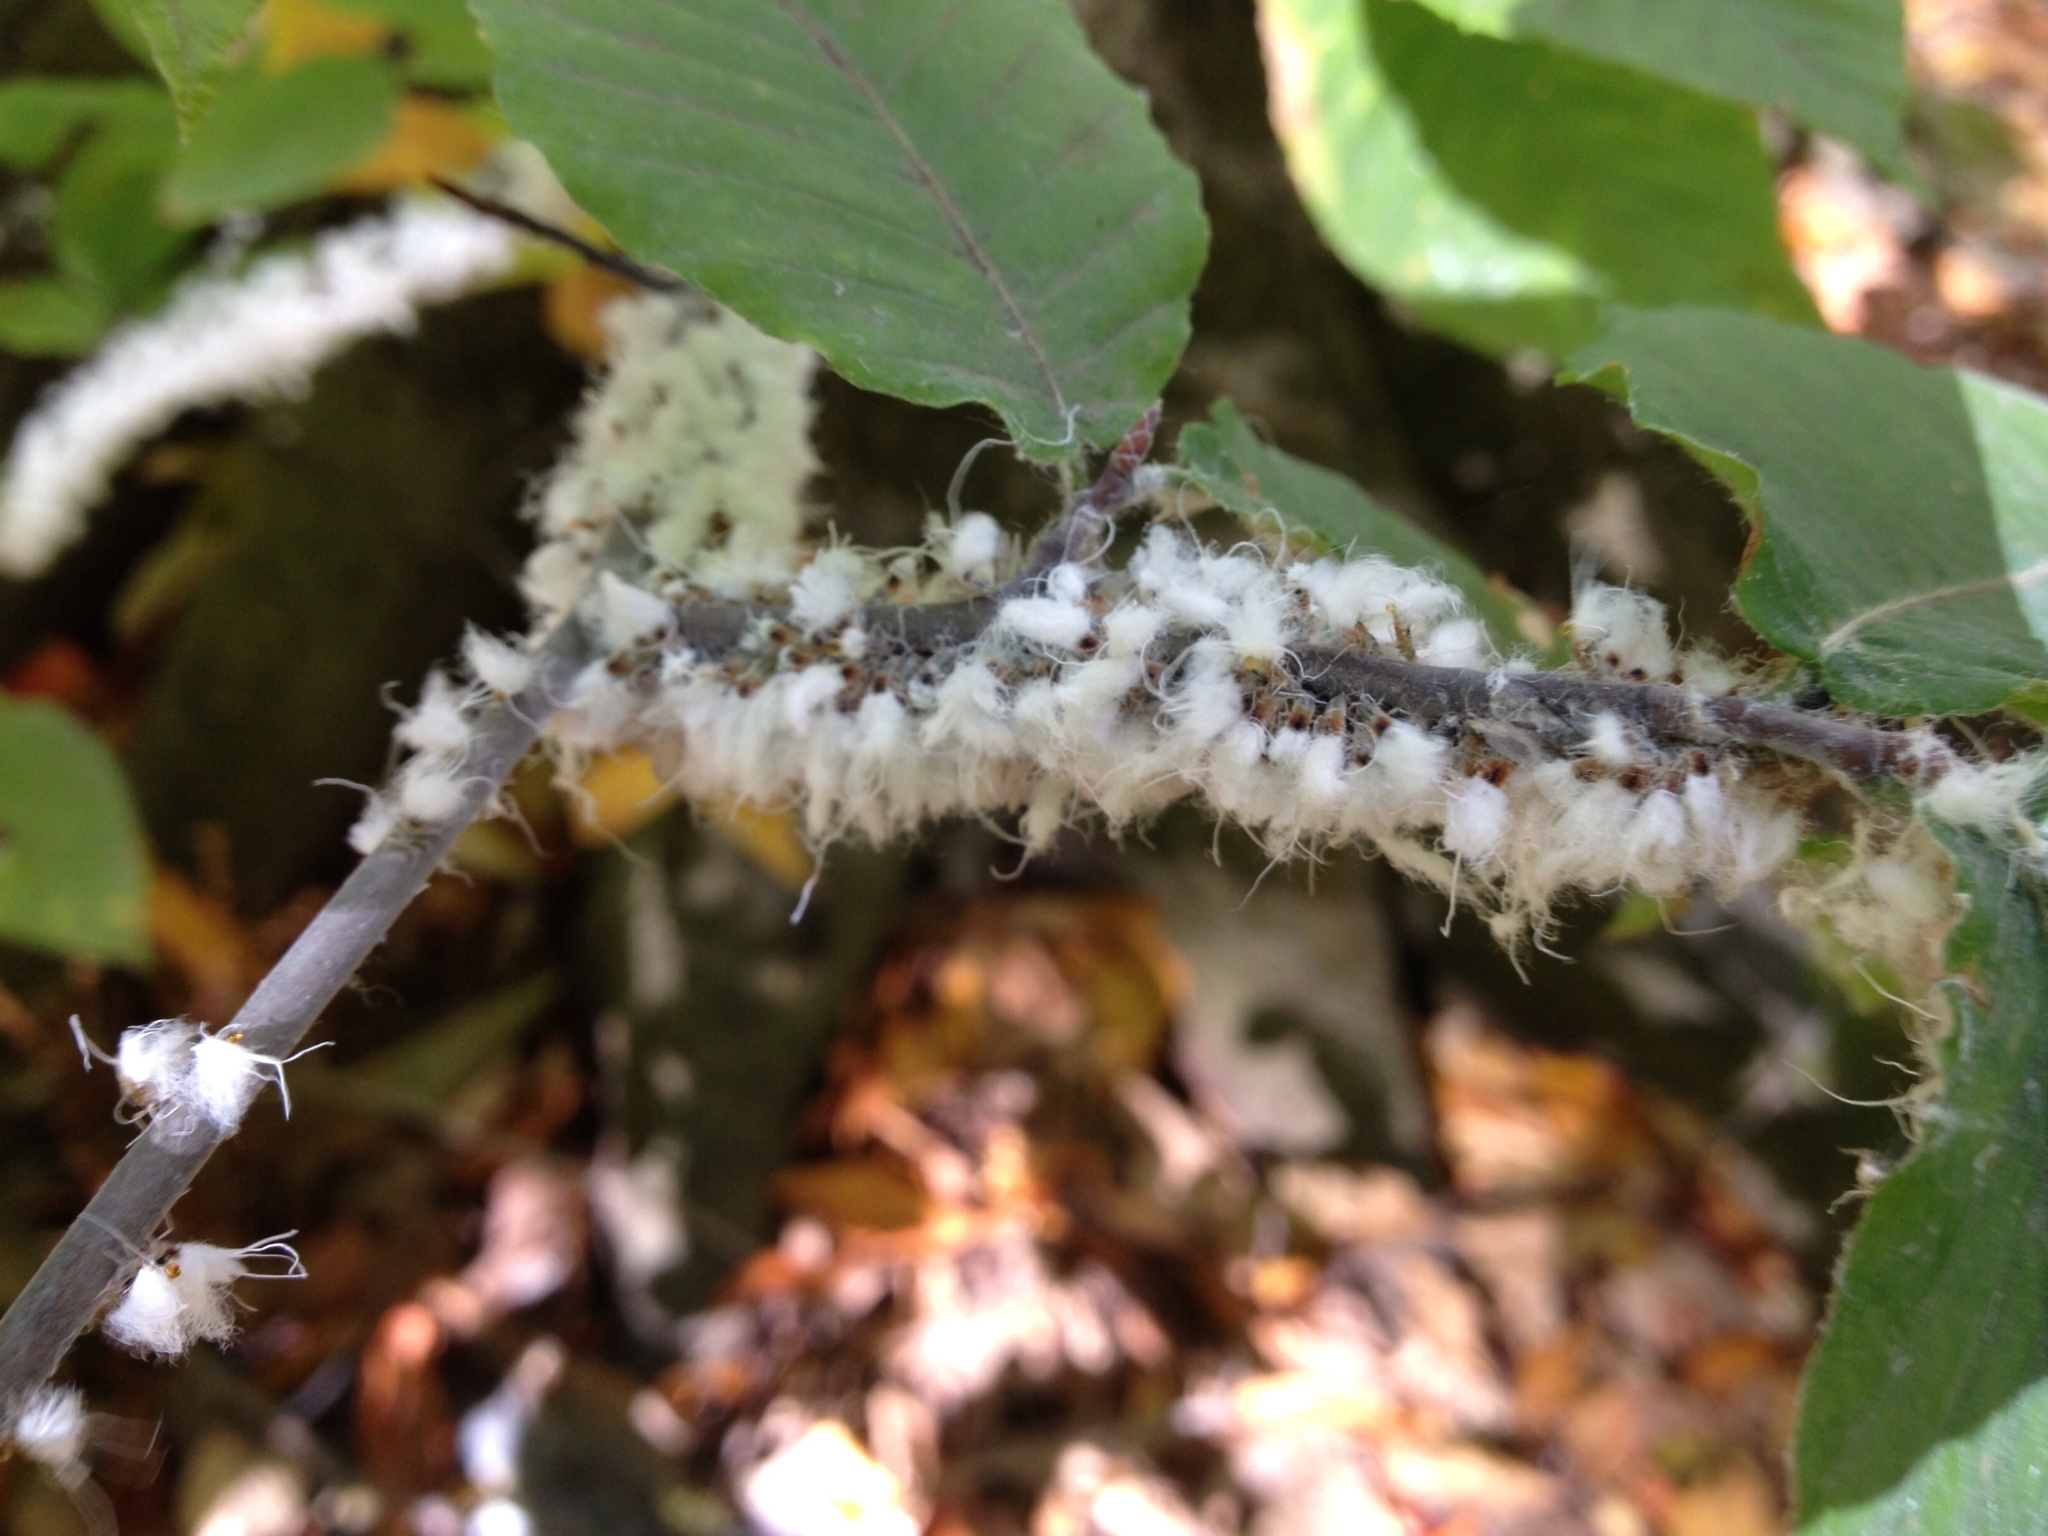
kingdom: Animalia
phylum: Arthropoda
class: Insecta
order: Hemiptera
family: Aphididae
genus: Grylloprociphilus
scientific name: Grylloprociphilus imbricator
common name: Beech blight aphid
